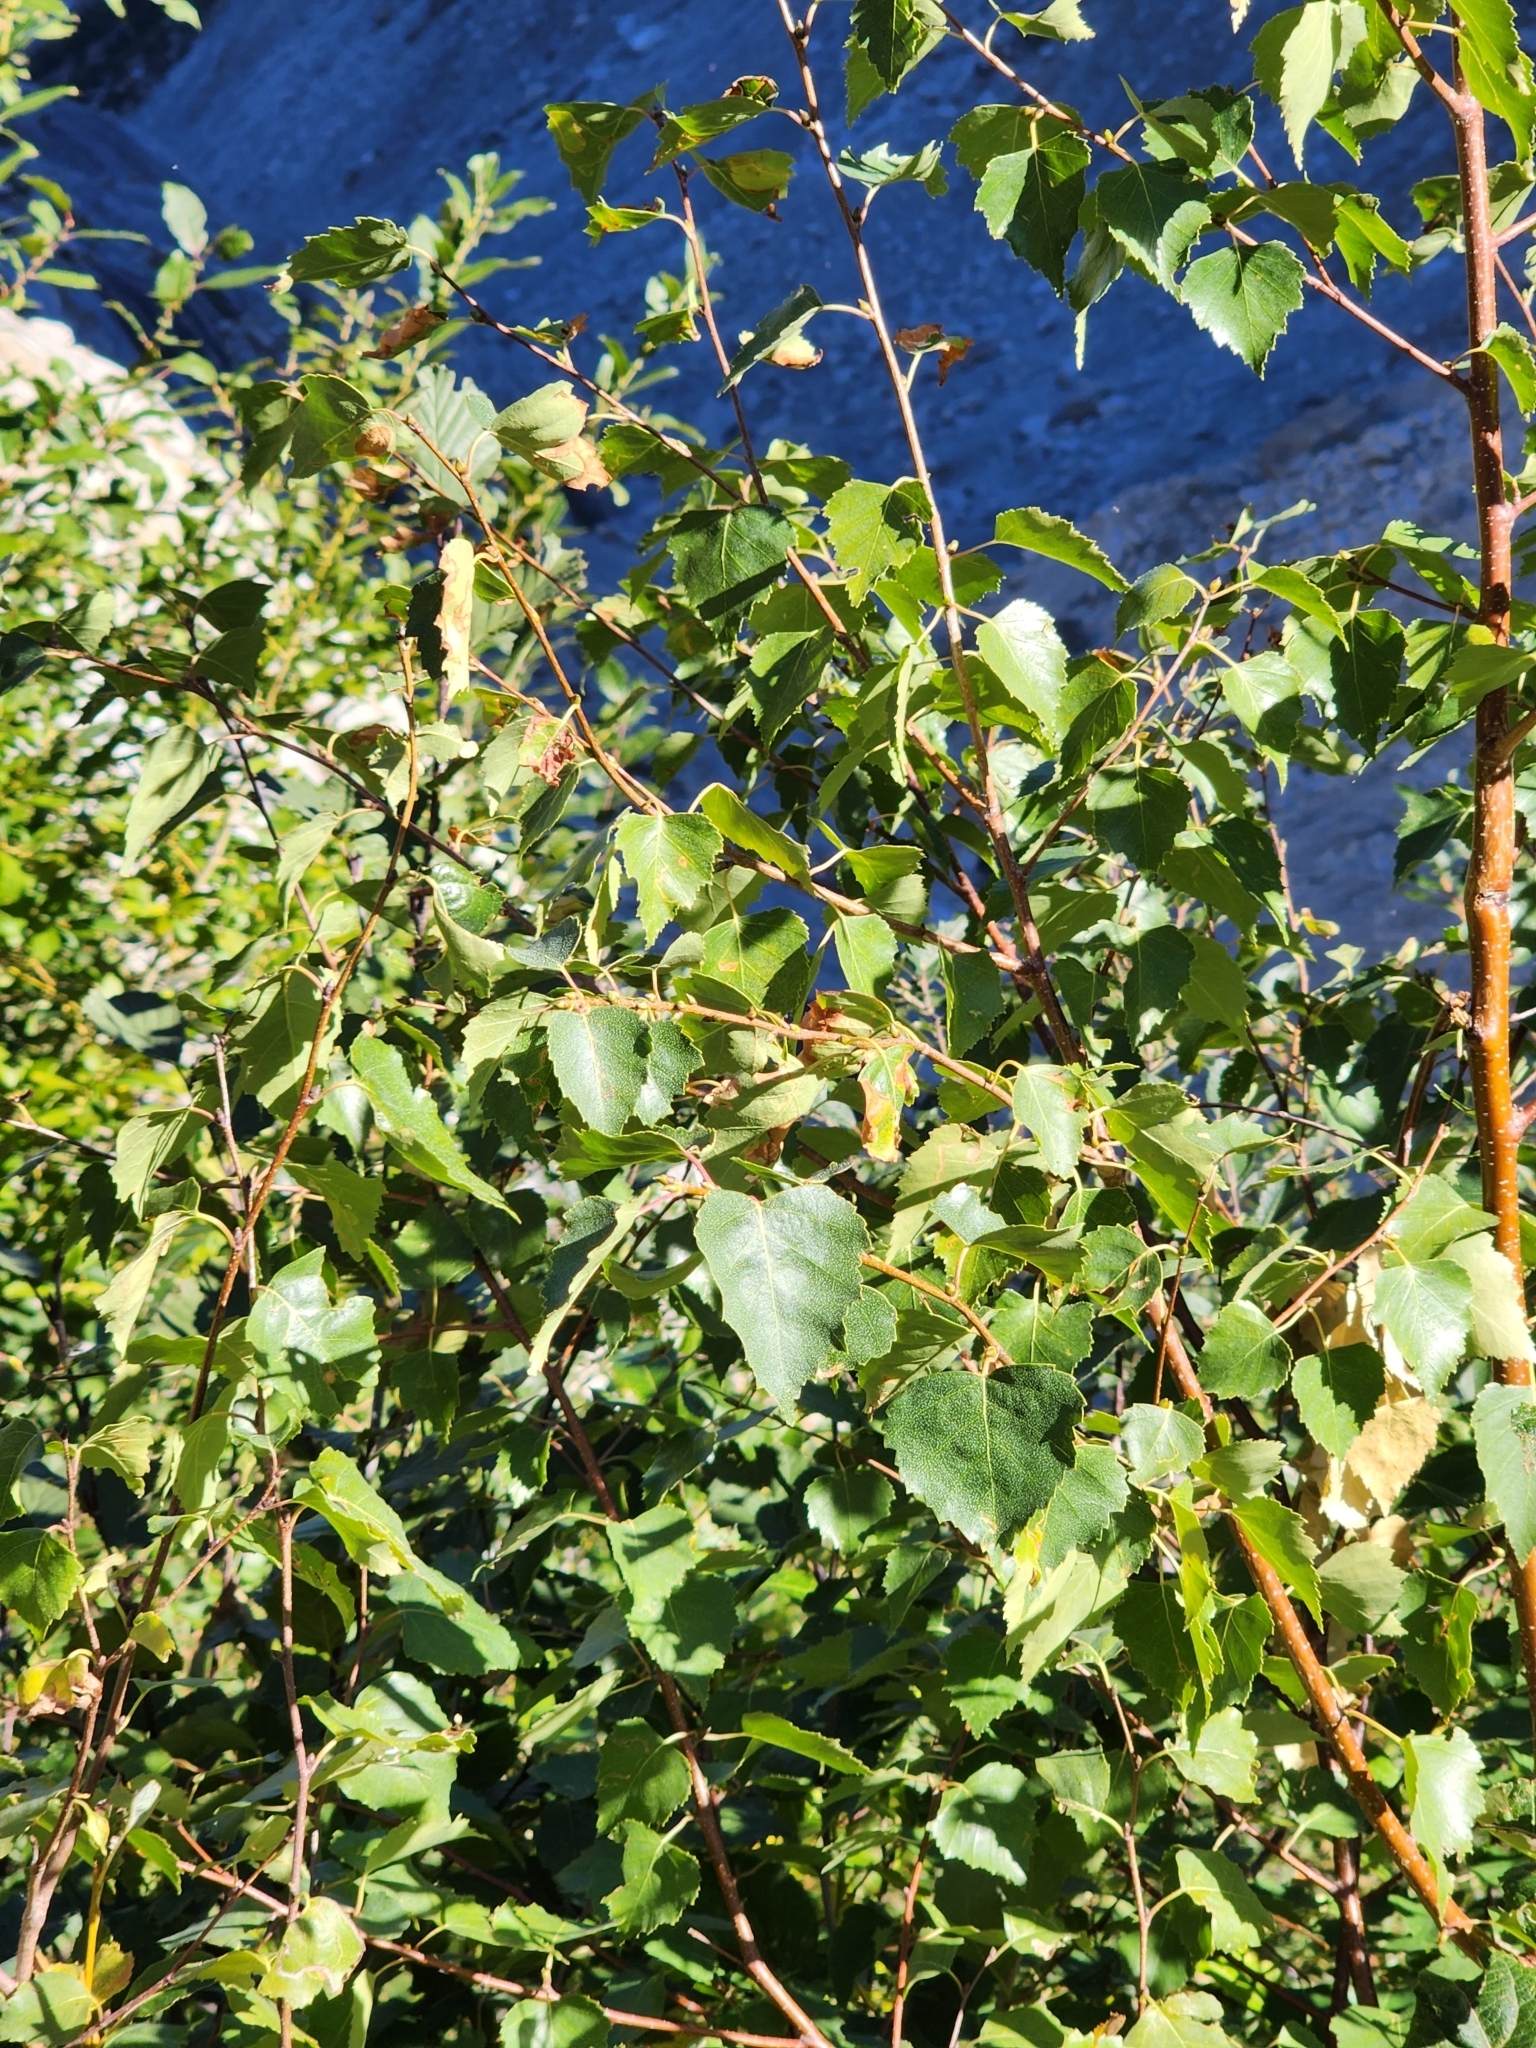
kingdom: Plantae
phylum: Tracheophyta
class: Magnoliopsida
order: Fagales
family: Betulaceae
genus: Betula
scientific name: Betula pendula
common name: Silver birch
